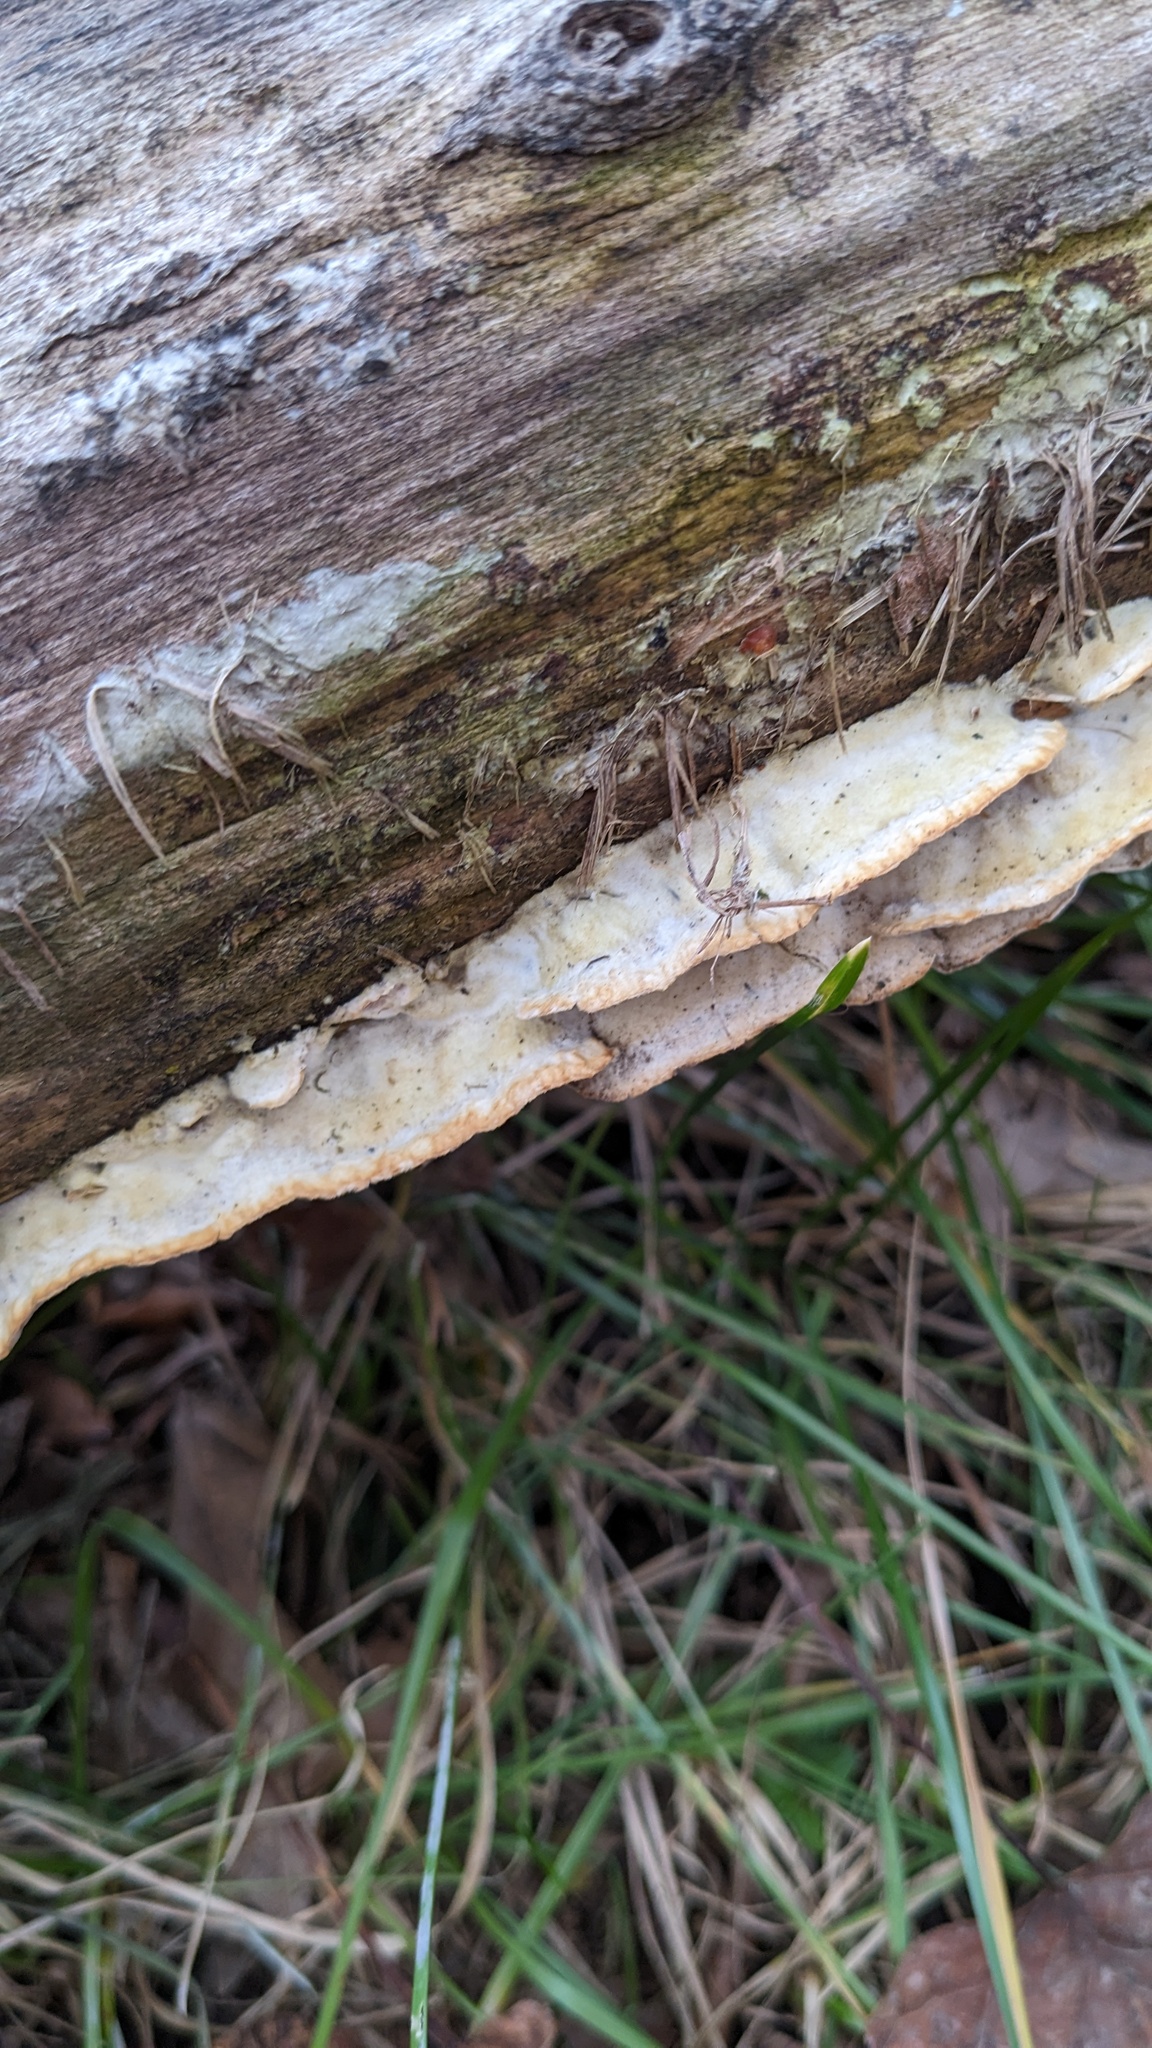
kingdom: Fungi
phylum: Basidiomycota
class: Agaricomycetes
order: Polyporales
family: Irpicaceae
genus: Vitreoporus
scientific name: Vitreoporus dichrous
